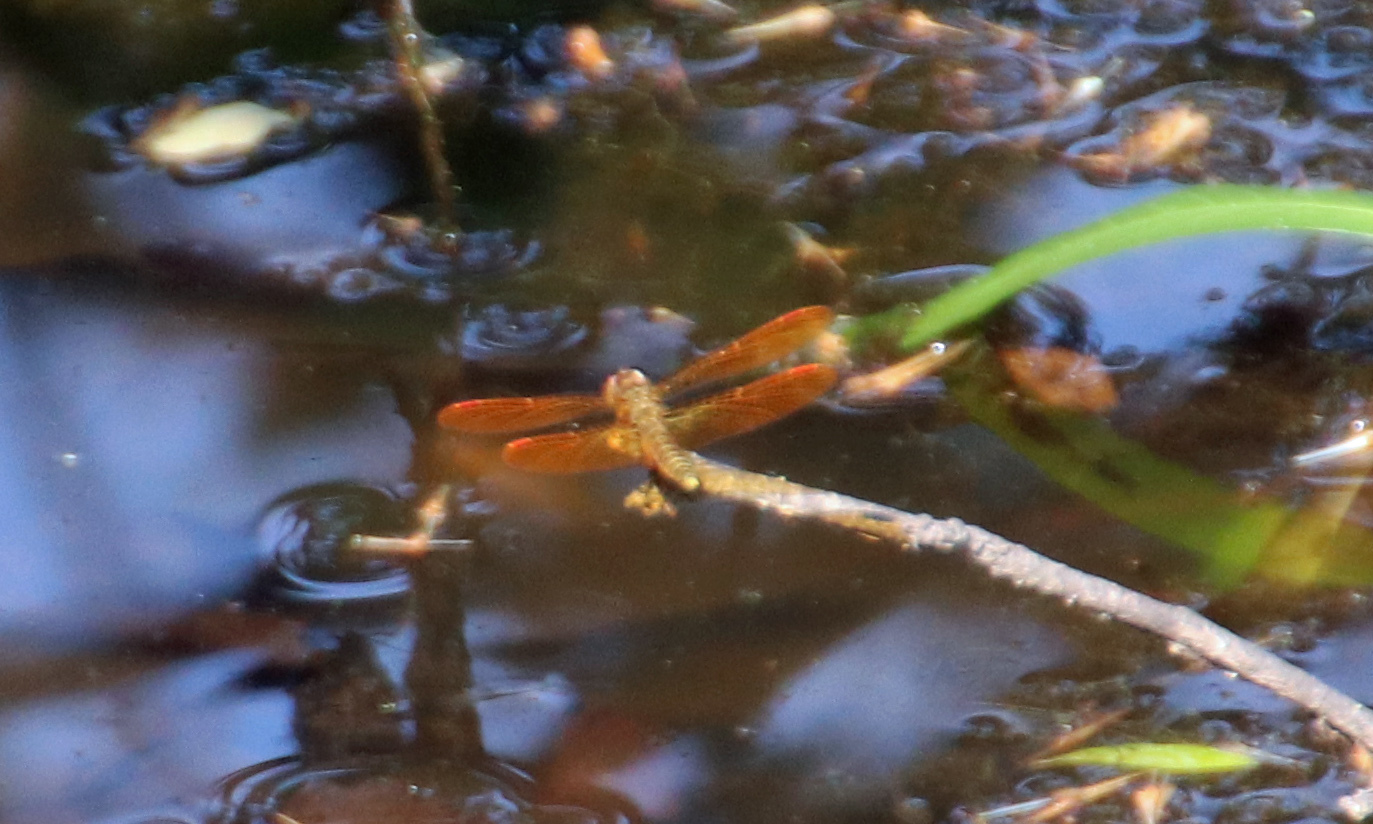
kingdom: Animalia
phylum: Arthropoda
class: Insecta
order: Odonata
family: Libellulidae
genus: Perithemis
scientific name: Perithemis tenera
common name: Eastern amberwing
